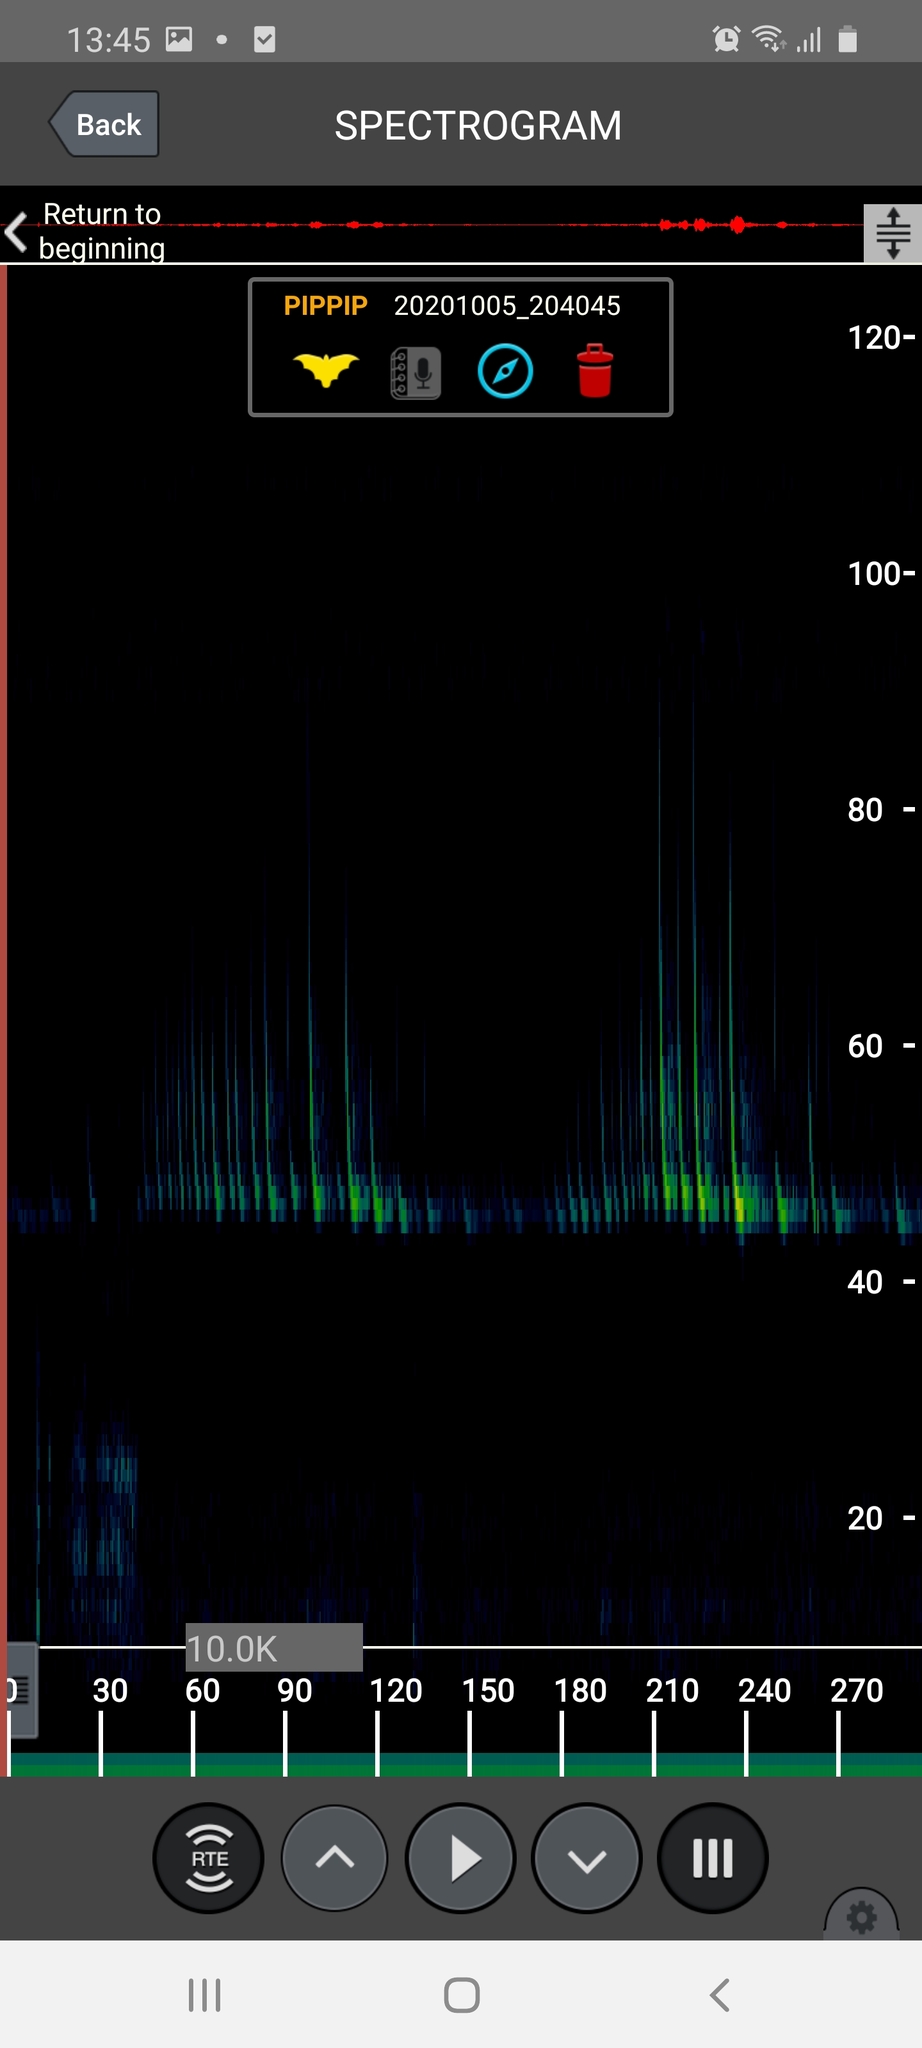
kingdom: Animalia
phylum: Chordata
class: Mammalia
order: Chiroptera
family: Vespertilionidae
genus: Pipistrellus
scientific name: Pipistrellus pipistrellus
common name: Common pipistrelle
